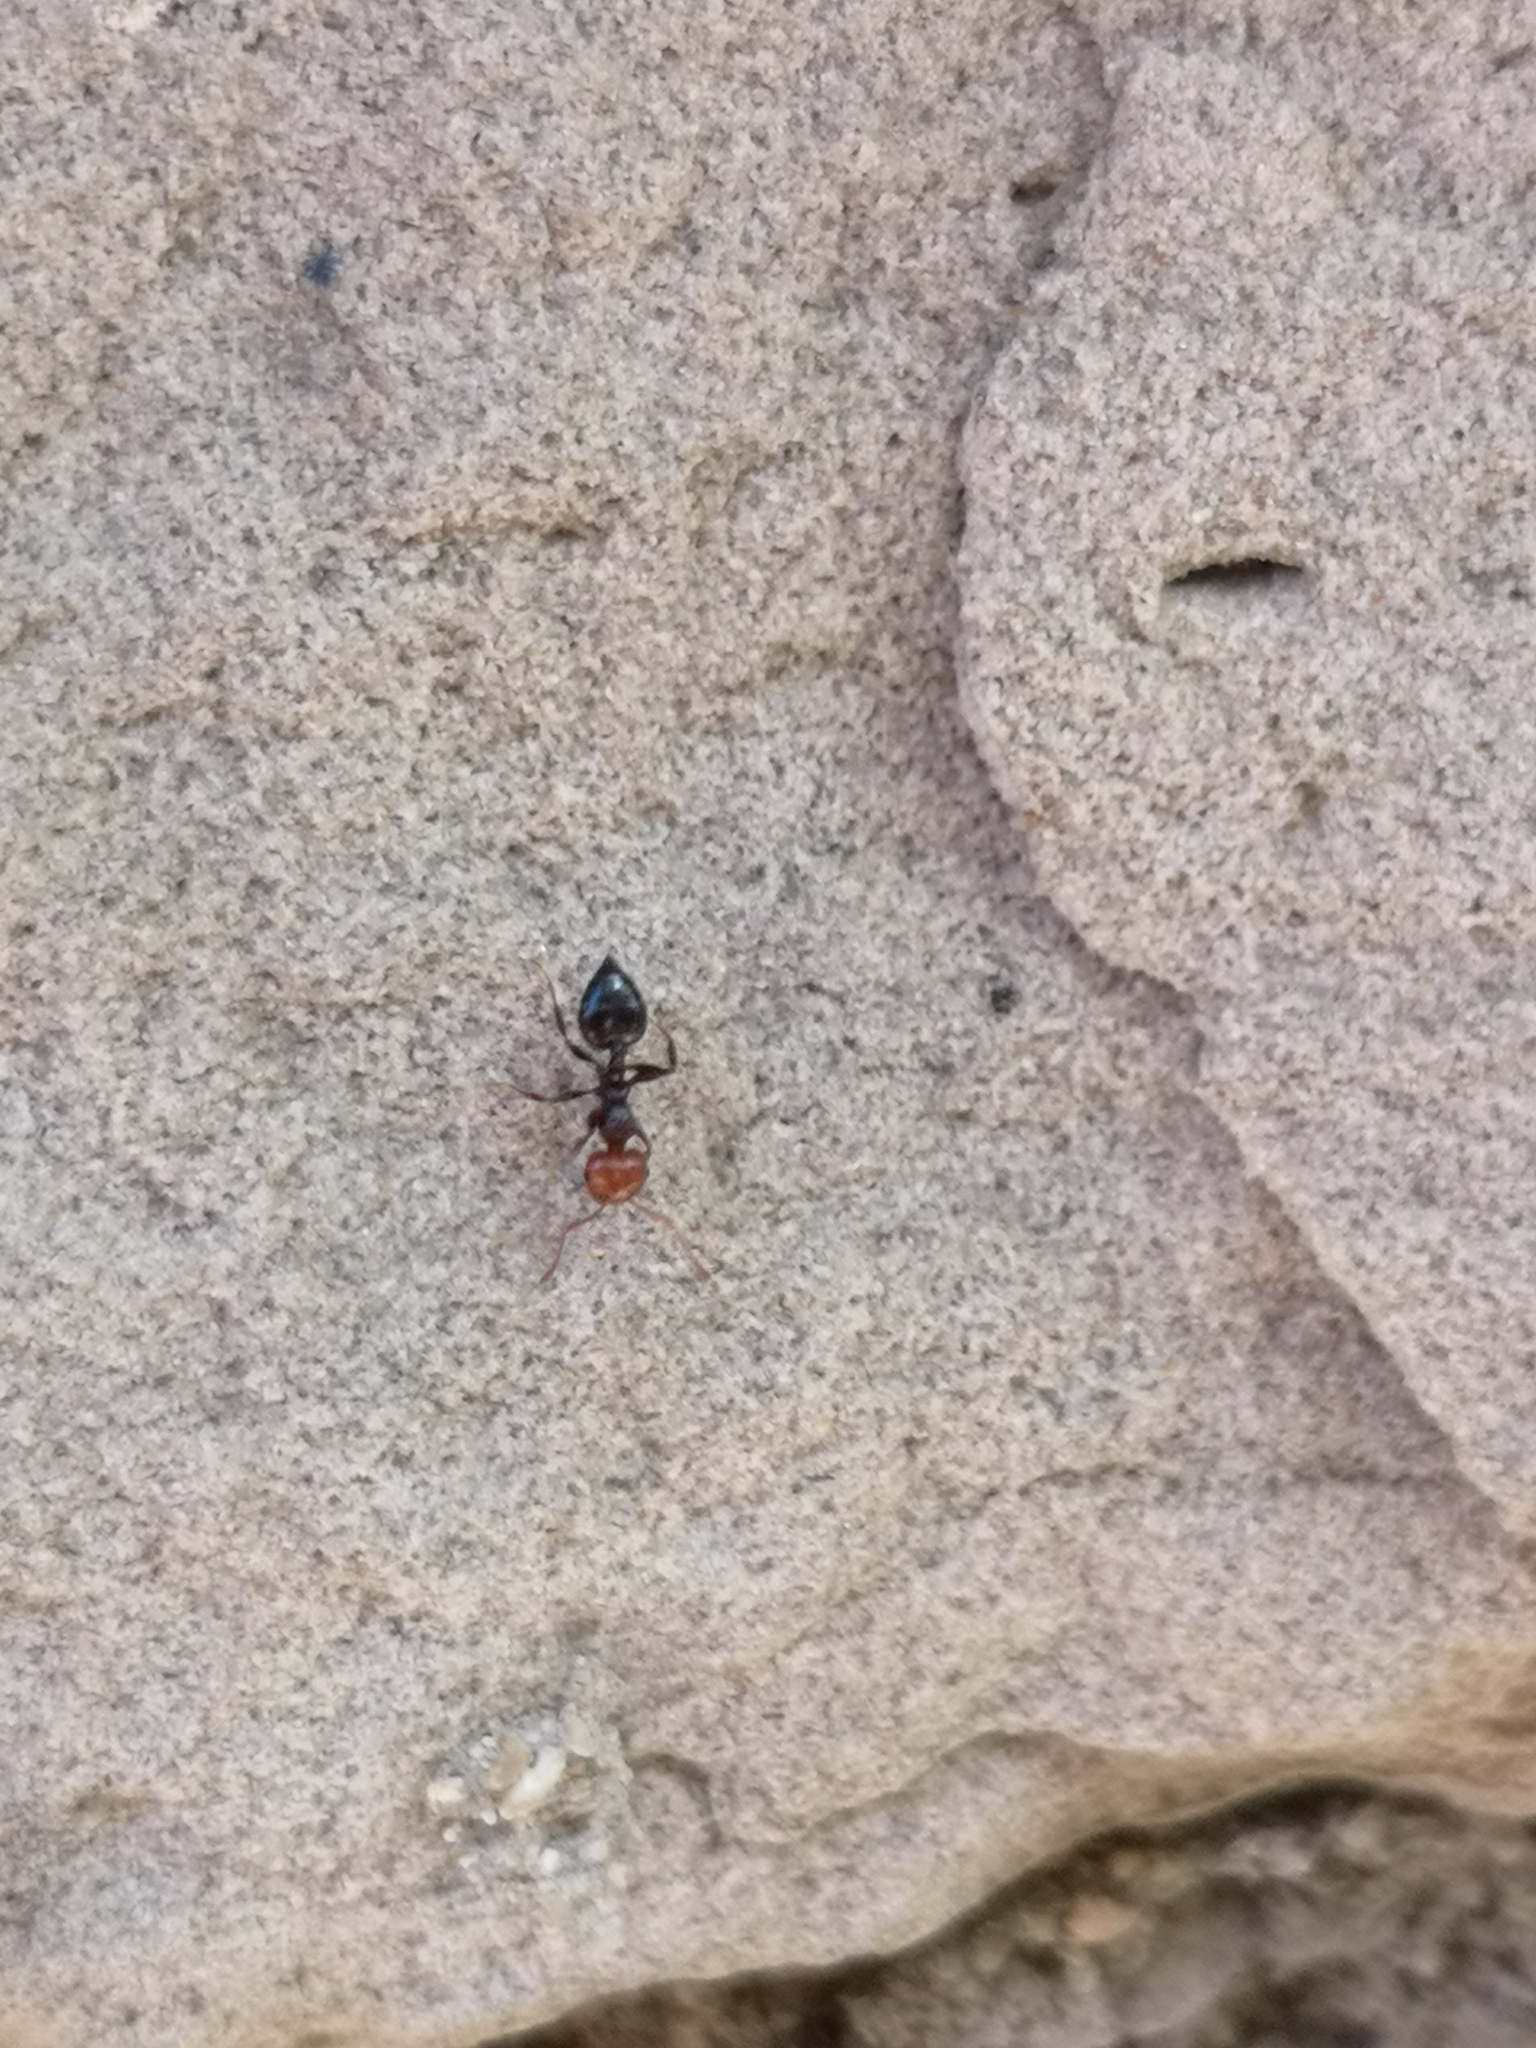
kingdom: Animalia
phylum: Arthropoda
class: Insecta
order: Hymenoptera
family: Formicidae
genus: Crematogaster
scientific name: Crematogaster scutellaris
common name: Fourmi du liège
